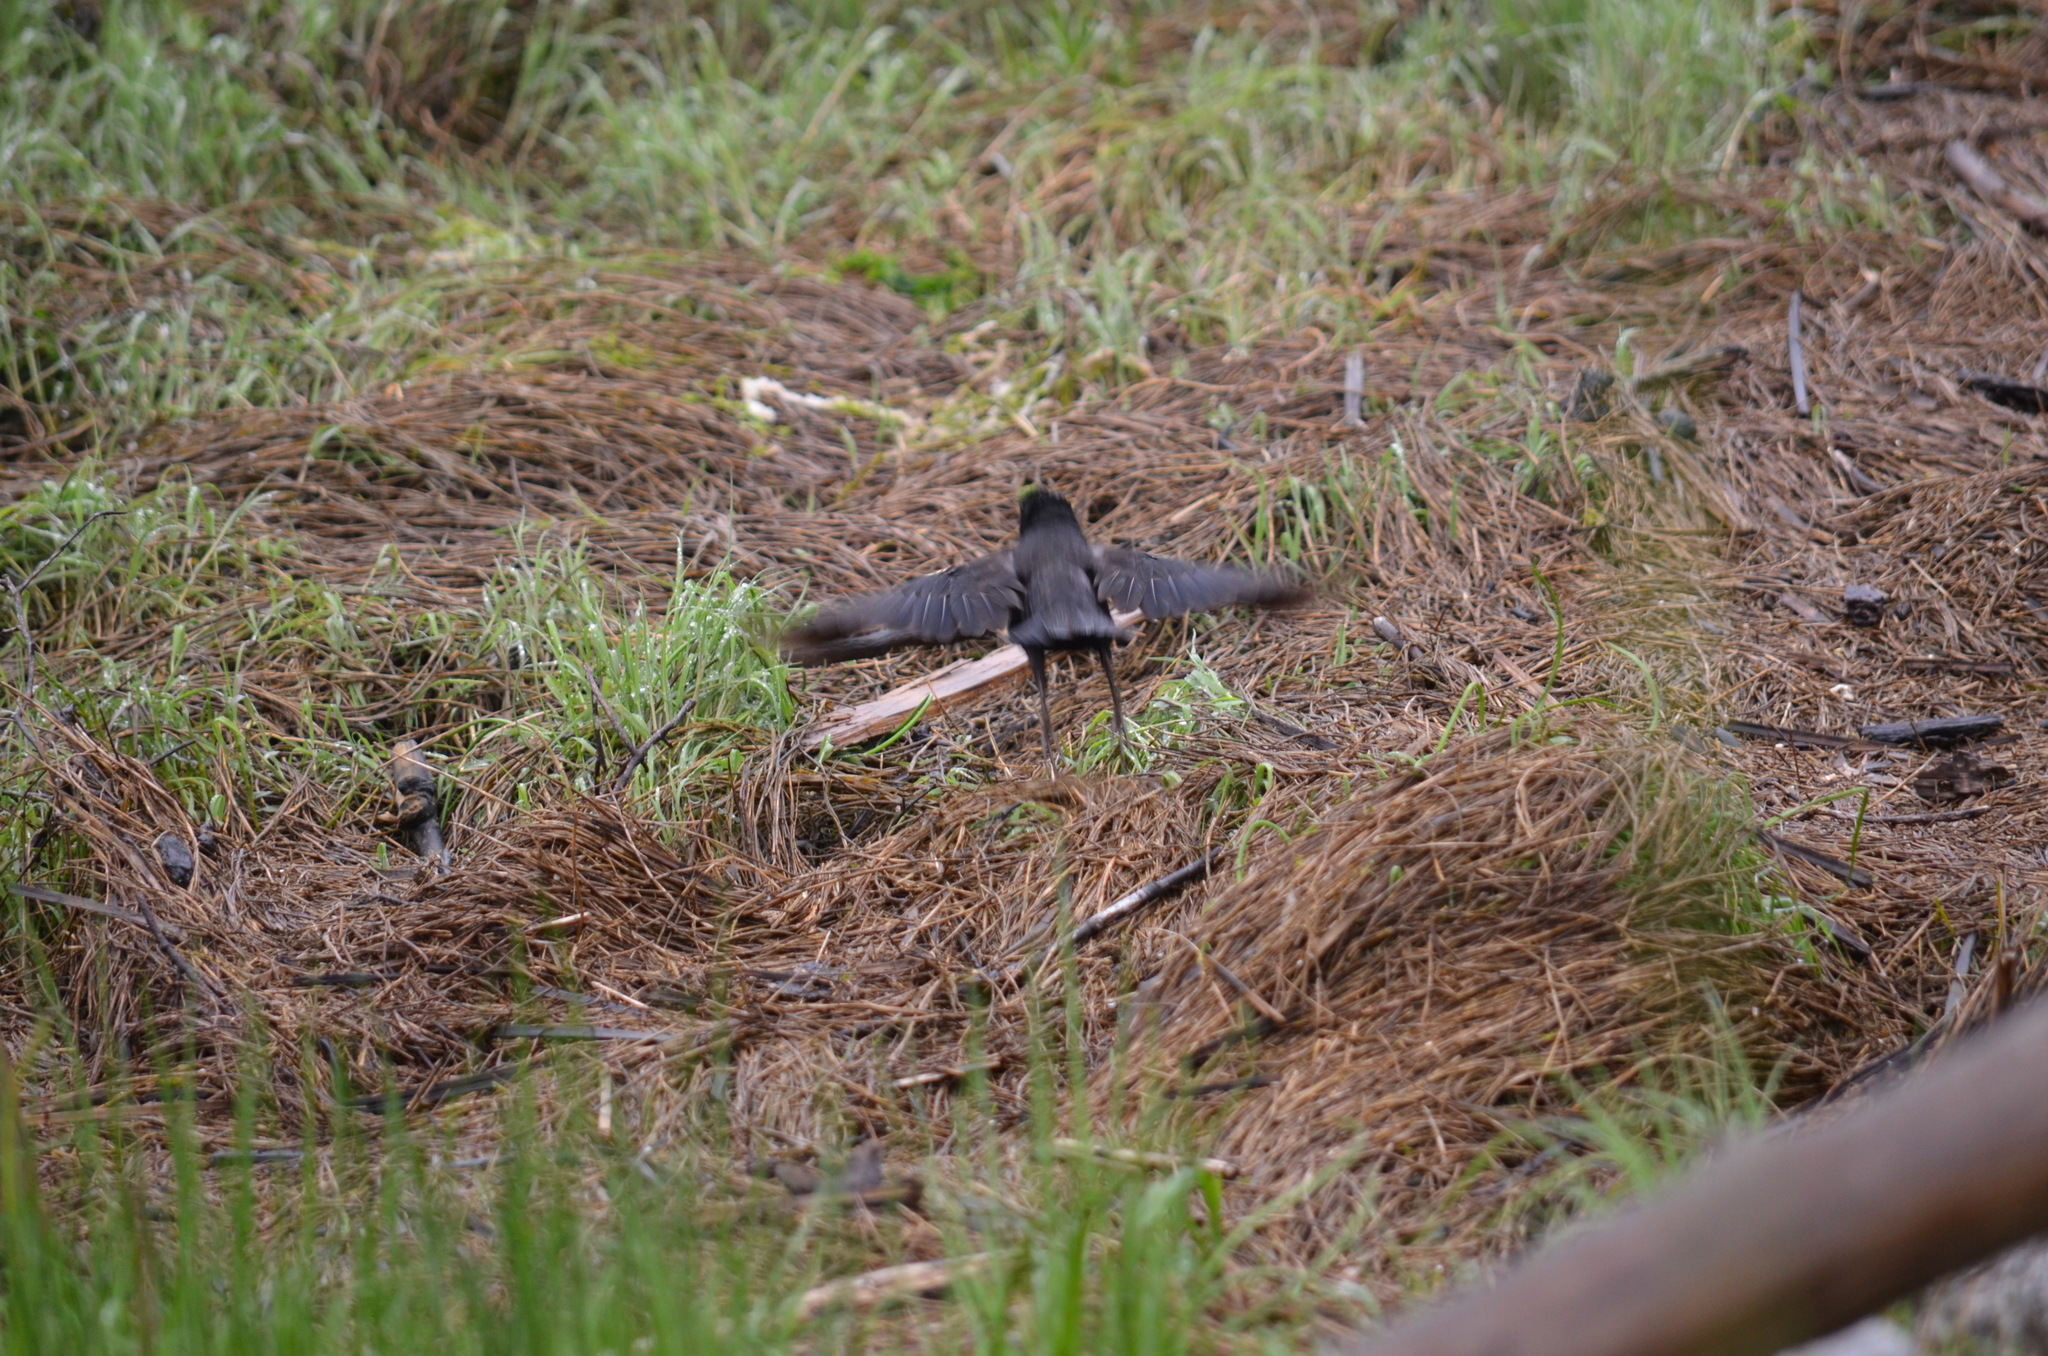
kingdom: Animalia
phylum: Chordata
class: Aves
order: Passeriformes
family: Icteridae
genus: Agelaius
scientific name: Agelaius phoeniceus
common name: Red-winged blackbird
